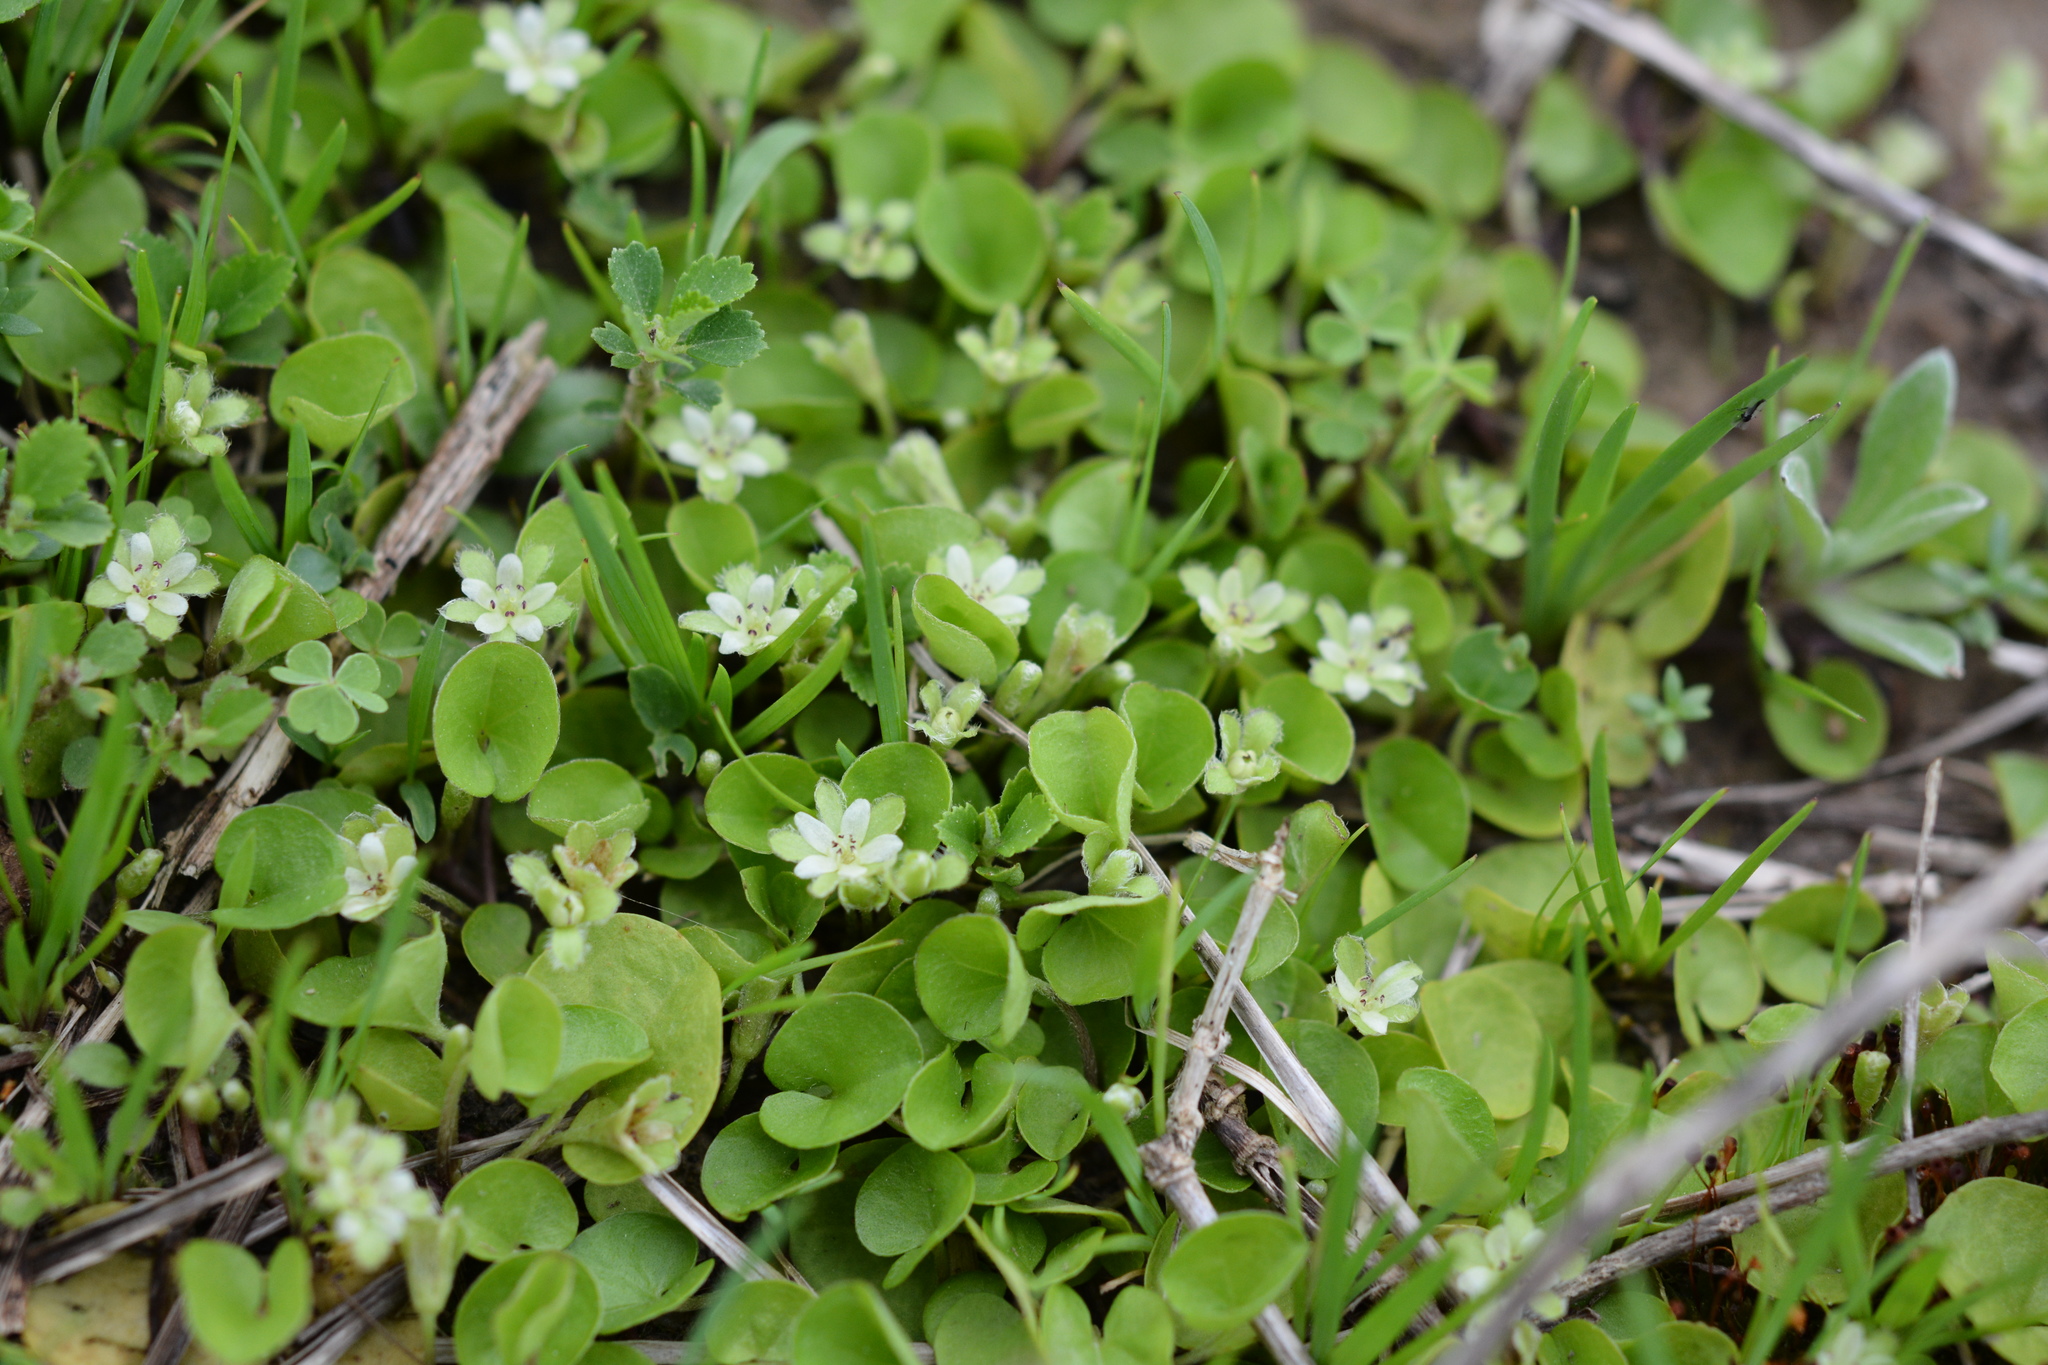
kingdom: Plantae
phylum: Tracheophyta
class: Magnoliopsida
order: Solanales
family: Convolvulaceae
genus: Dichondra
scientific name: Dichondra carolinensis
